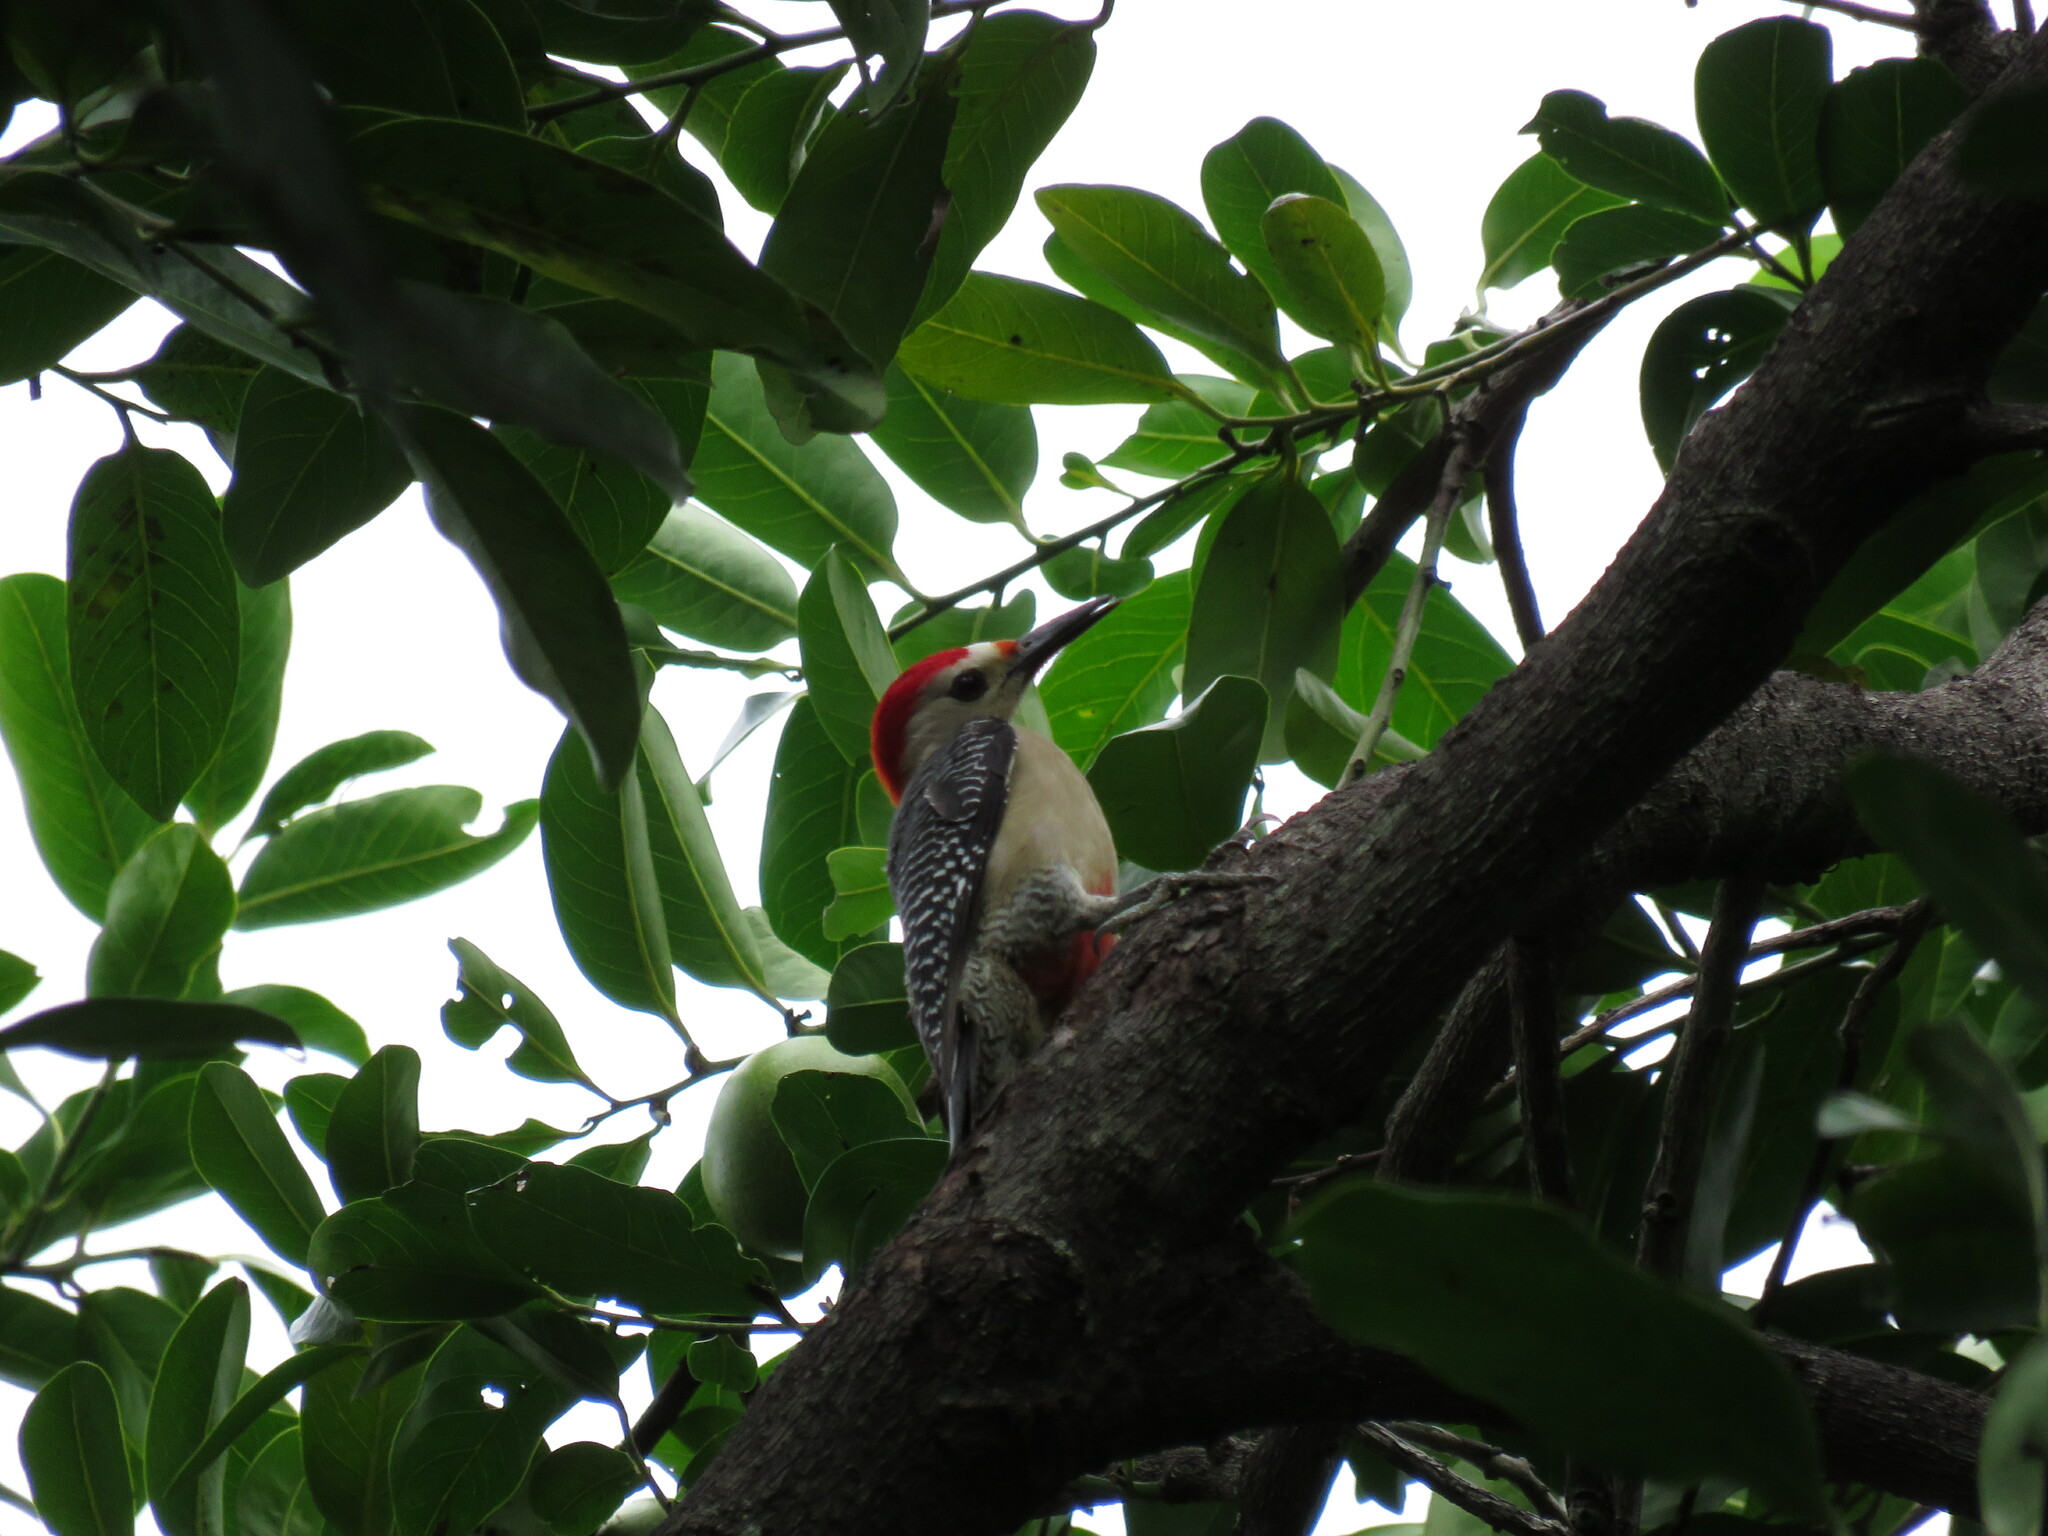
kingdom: Animalia
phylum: Chordata
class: Aves
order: Piciformes
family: Picidae
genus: Melanerpes
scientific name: Melanerpes aurifrons
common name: Golden-fronted woodpecker
